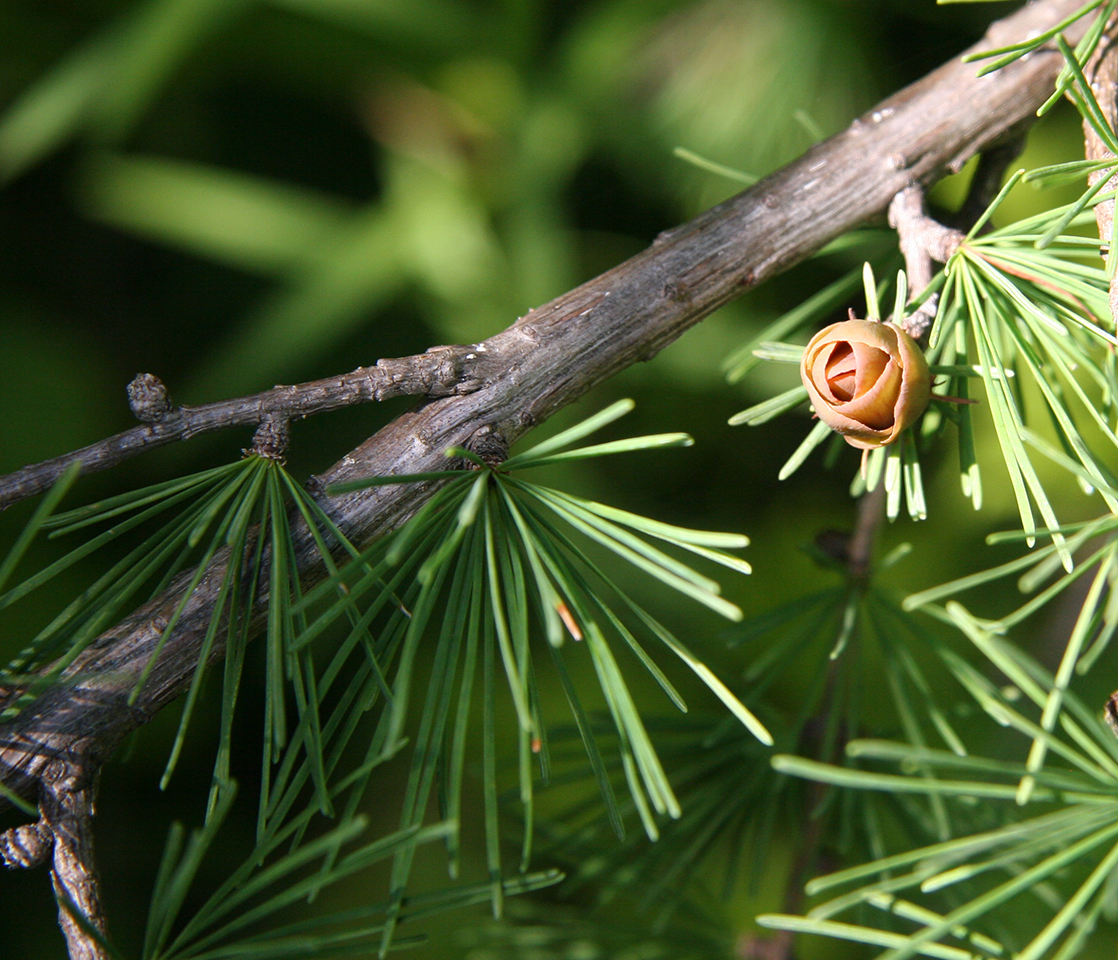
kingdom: Plantae
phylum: Tracheophyta
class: Pinopsida
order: Pinales
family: Pinaceae
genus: Larix
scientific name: Larix laricina
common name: American larch
